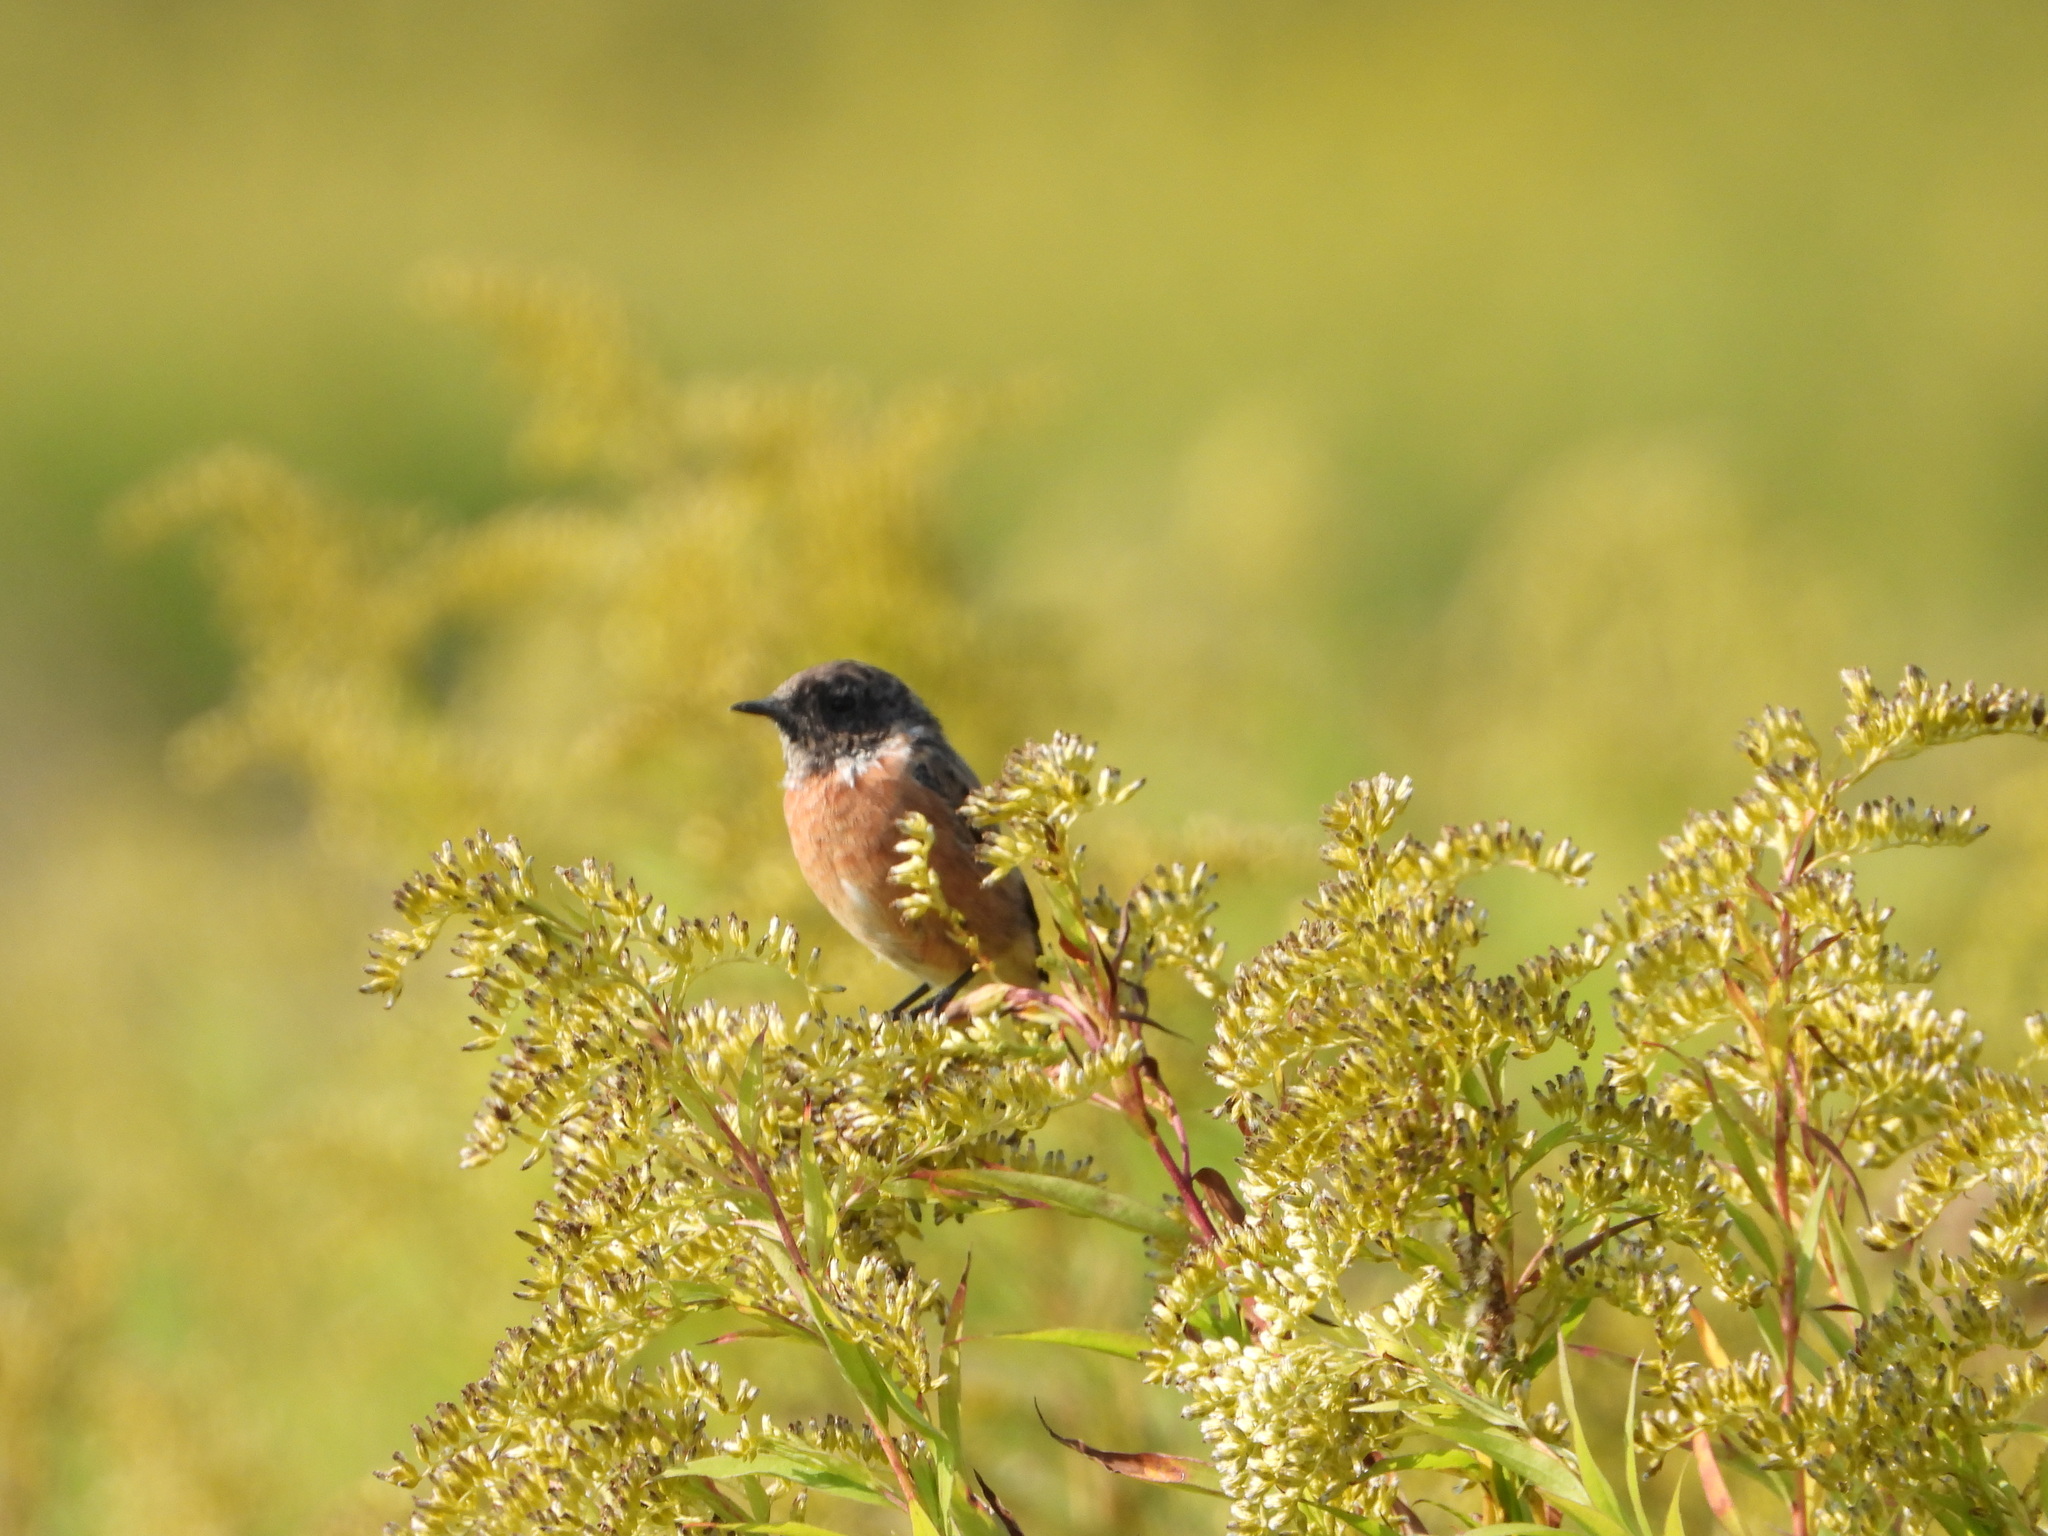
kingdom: Animalia
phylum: Chordata
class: Aves
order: Passeriformes
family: Muscicapidae
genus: Saxicola
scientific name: Saxicola rubicola
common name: European stonechat
